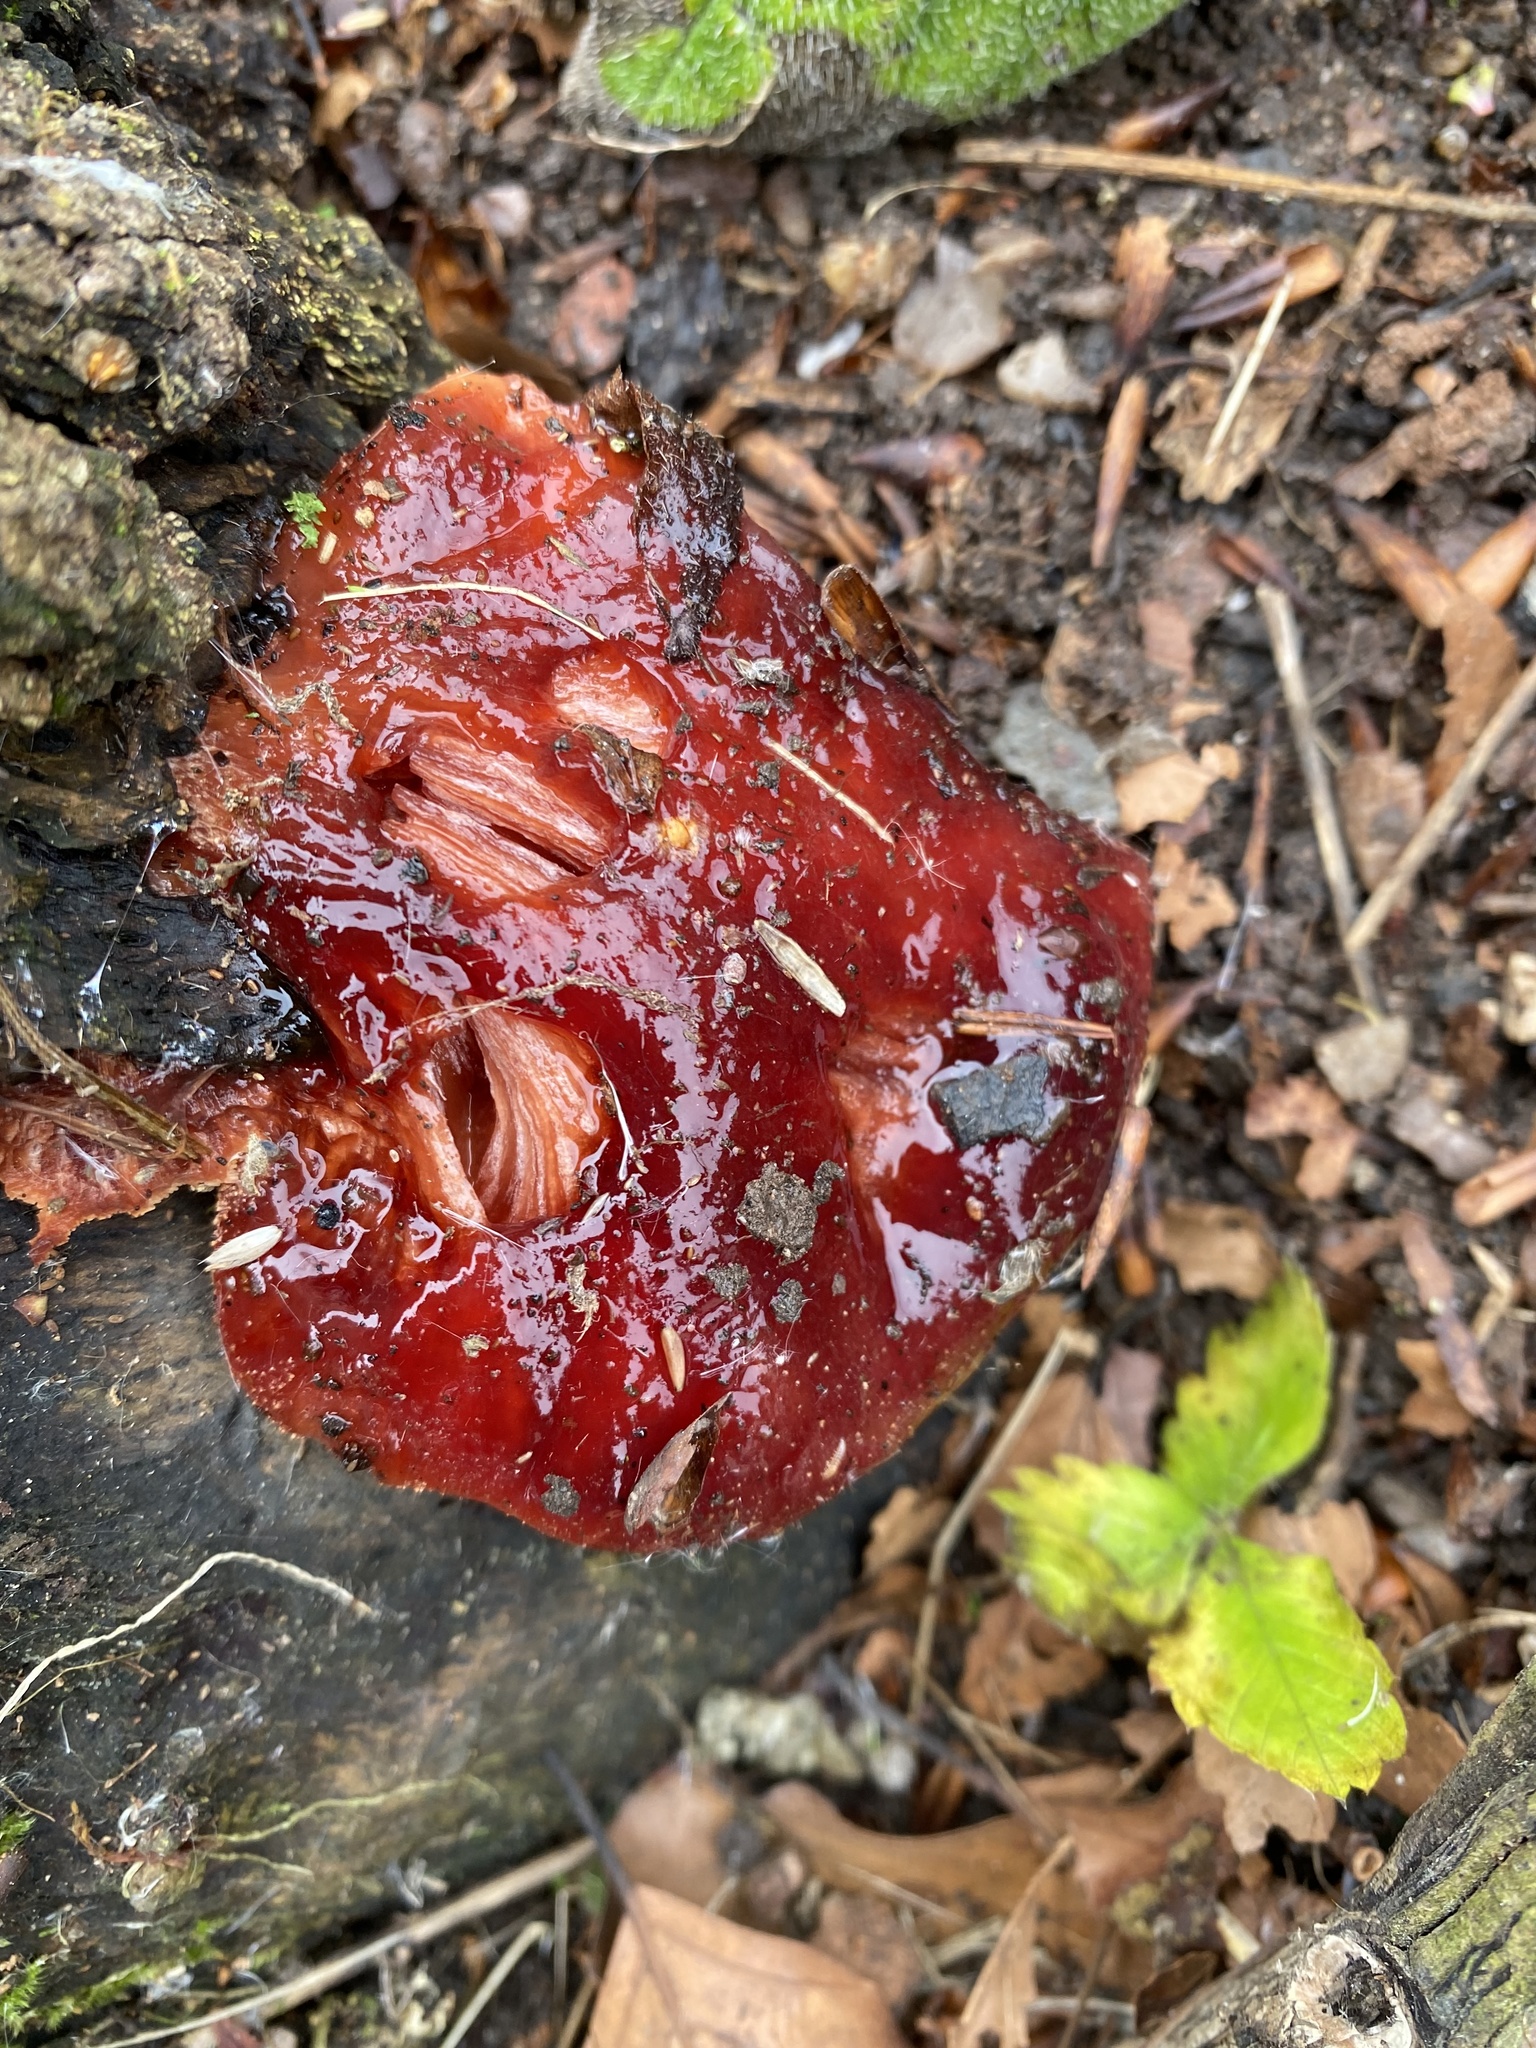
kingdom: Fungi
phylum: Basidiomycota
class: Agaricomycetes
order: Agaricales
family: Fistulinaceae
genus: Fistulina
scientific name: Fistulina hepatica
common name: Beef-steak fungus
